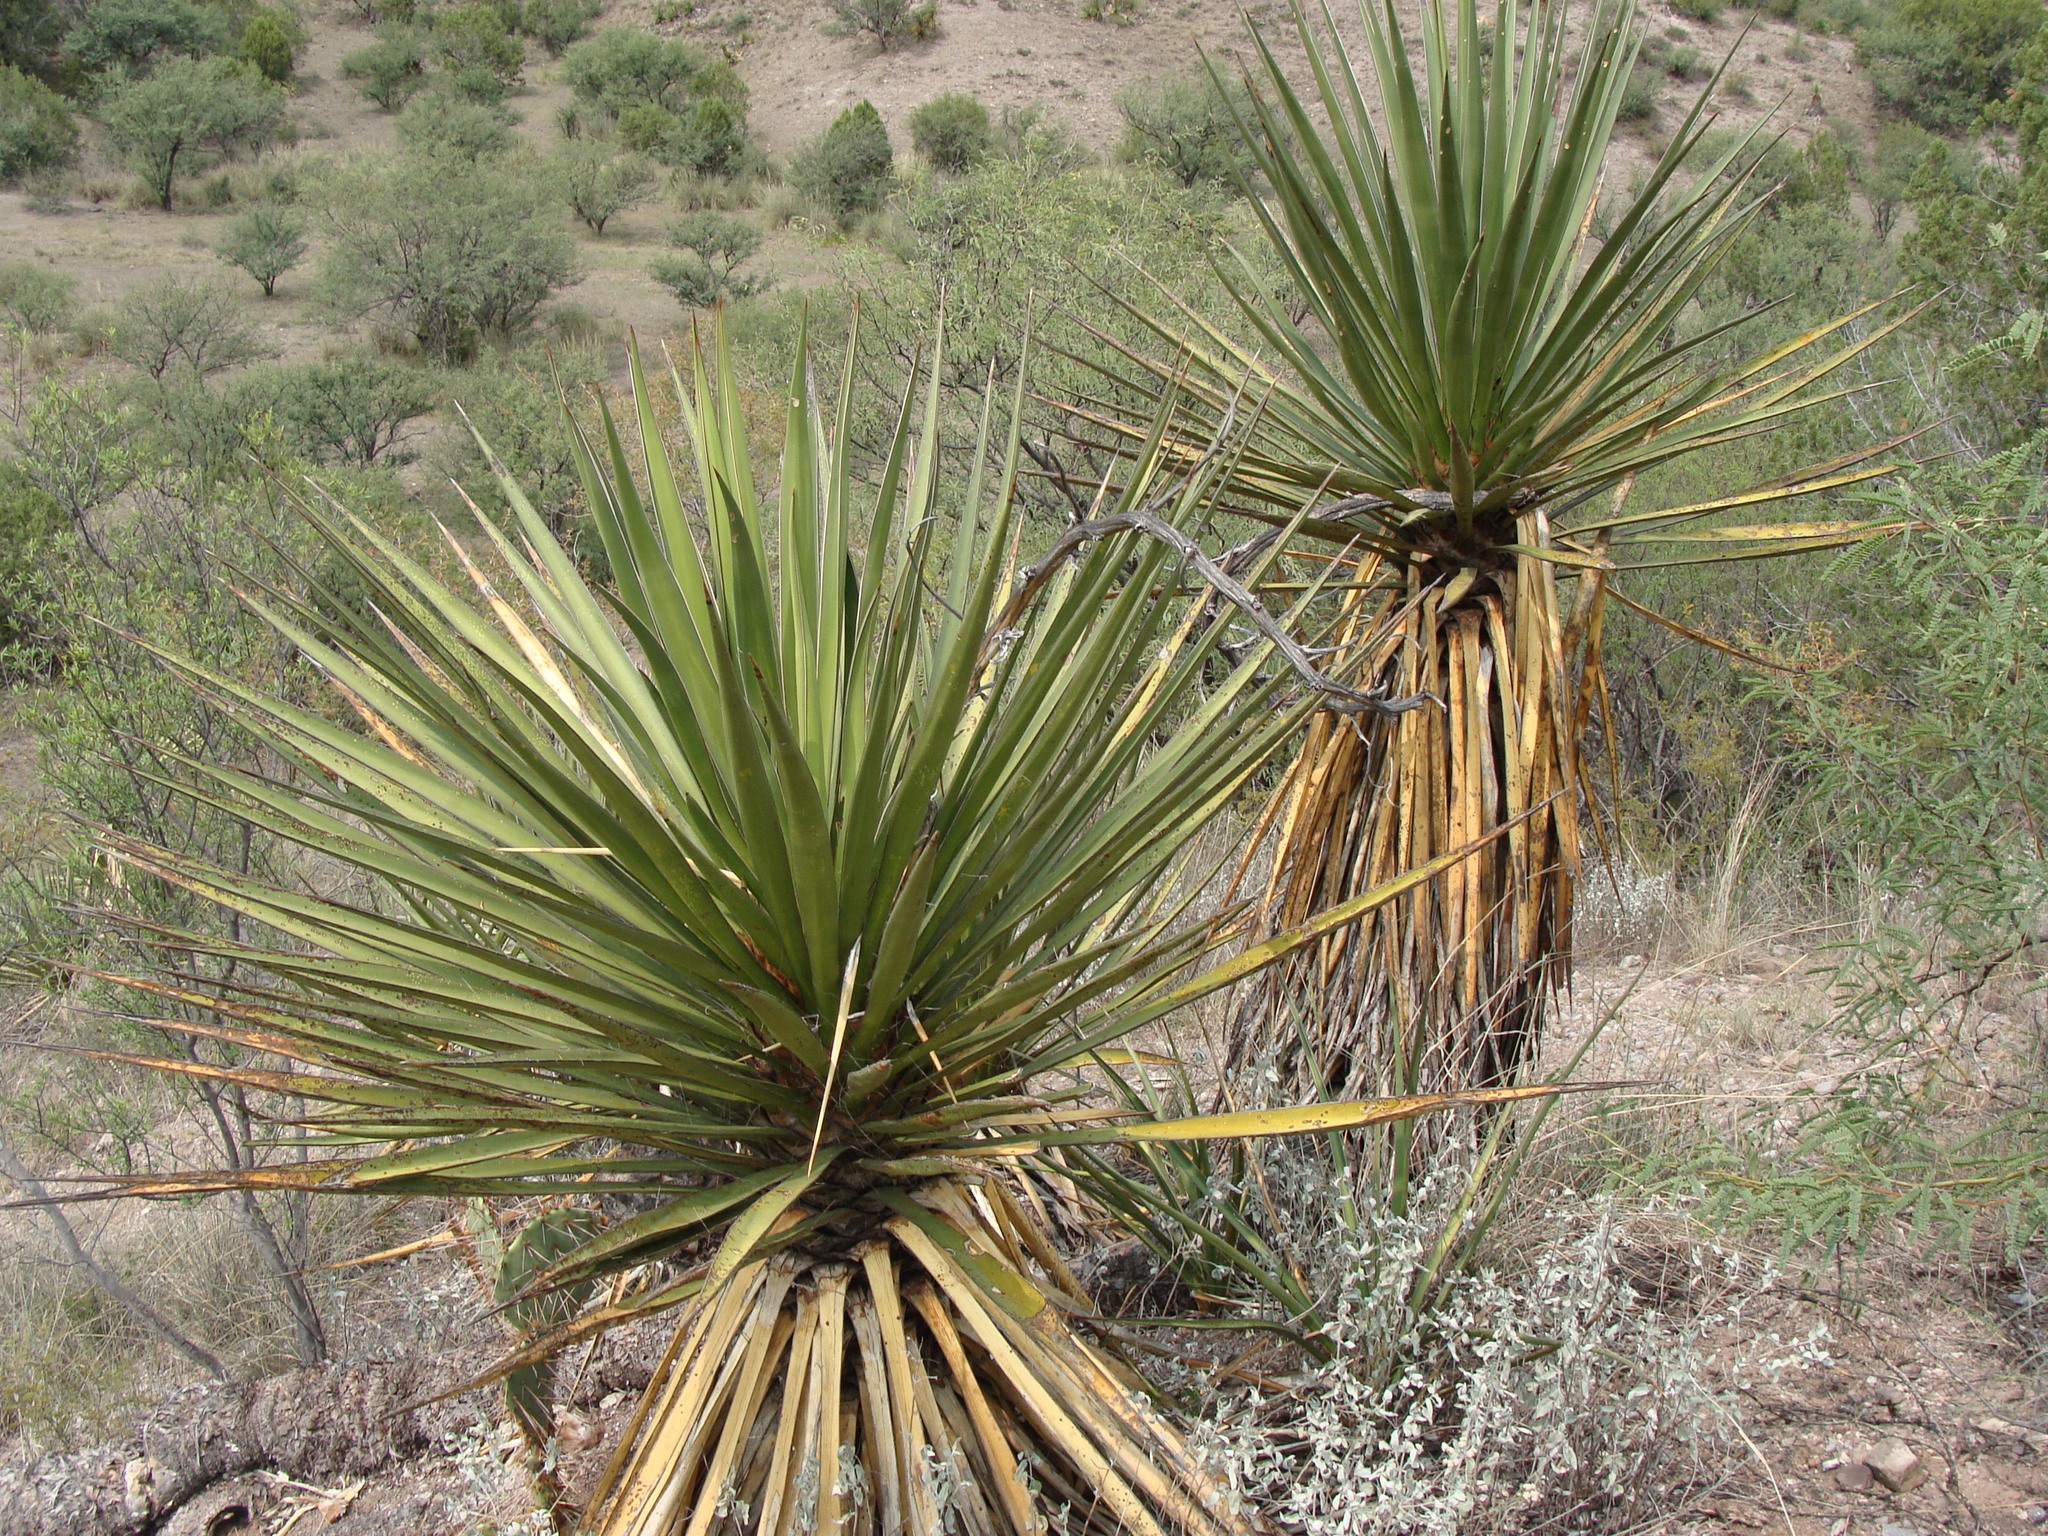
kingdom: Plantae
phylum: Tracheophyta
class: Liliopsida
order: Asparagales
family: Asparagaceae
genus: Yucca
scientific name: Yucca madrensis
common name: Hoary yucca
